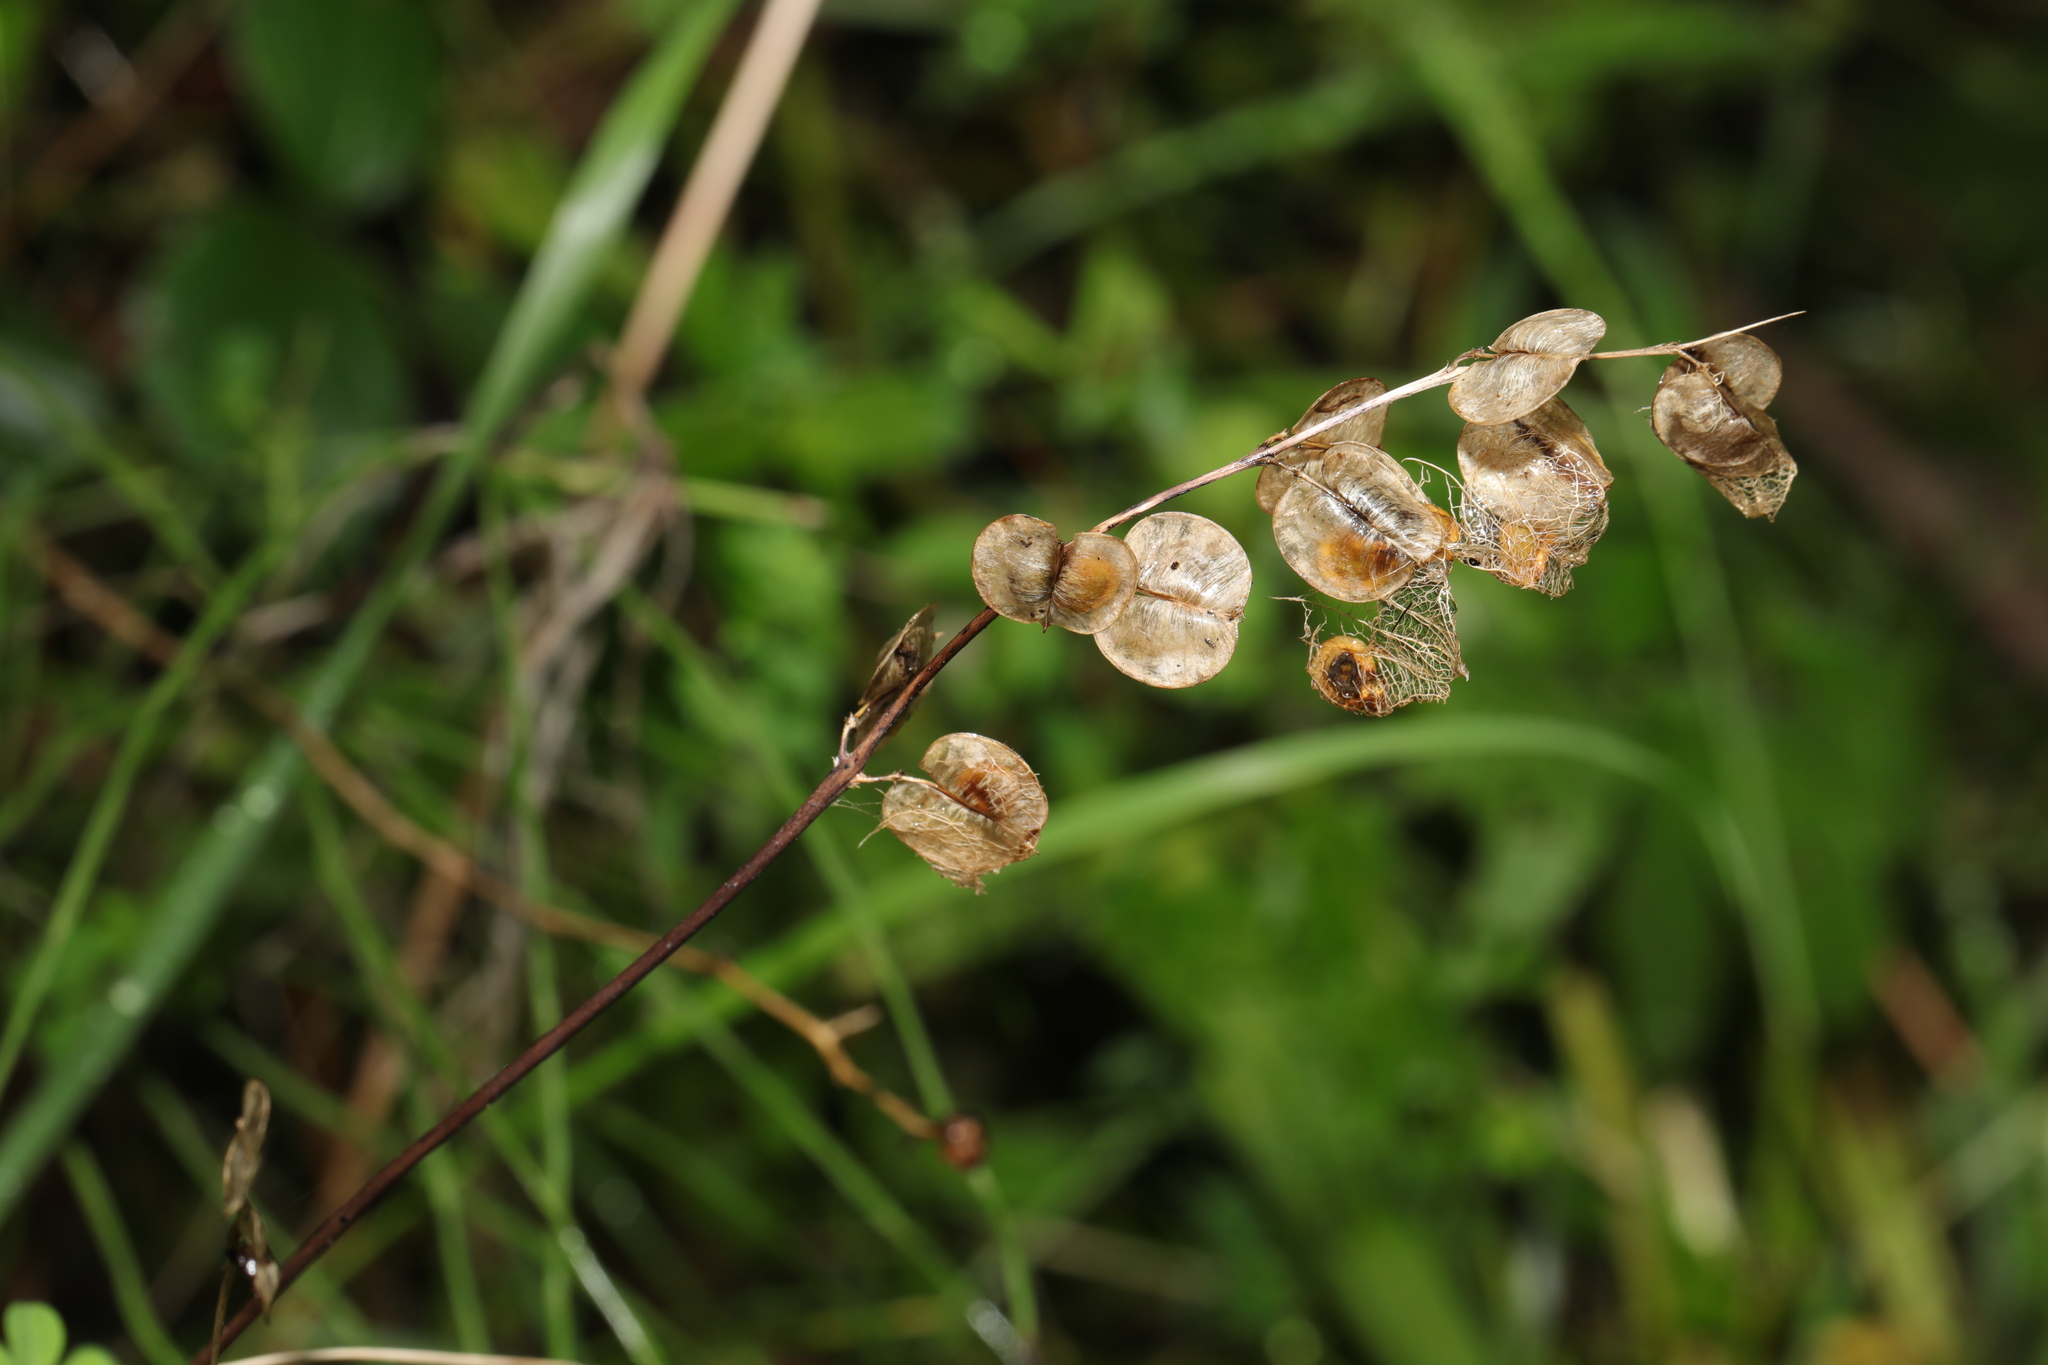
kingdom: Plantae
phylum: Tracheophyta
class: Magnoliopsida
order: Lamiales
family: Orobanchaceae
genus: Rhinanthus
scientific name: Rhinanthus minor
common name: Yellow-rattle
